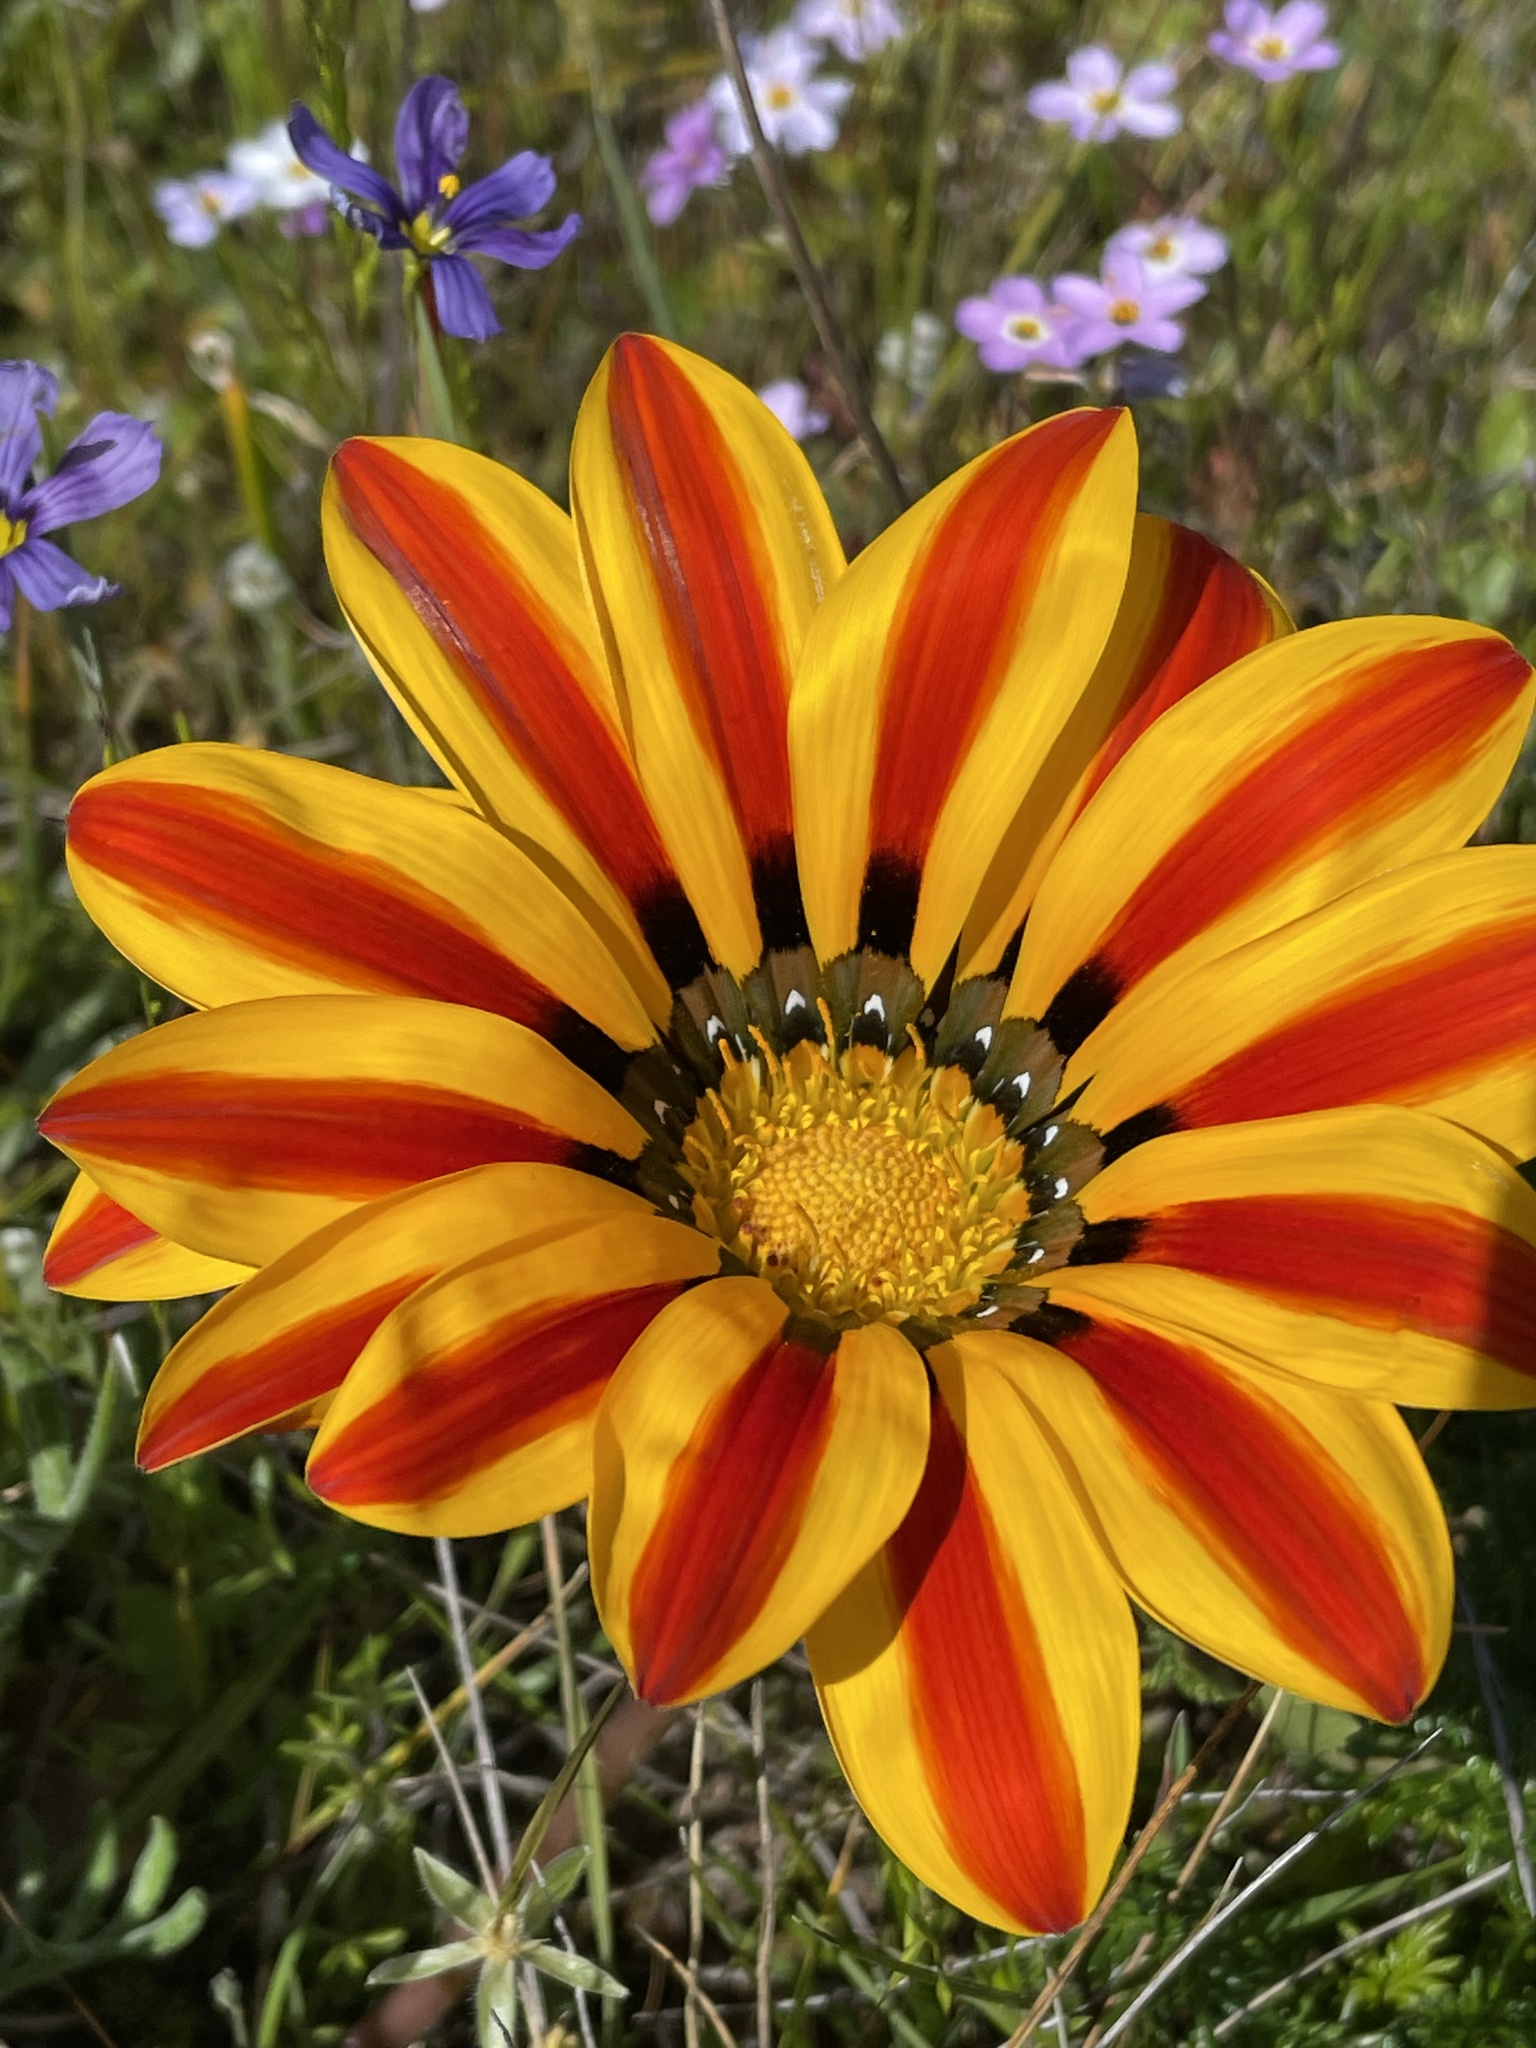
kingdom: Plantae
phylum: Tracheophyta
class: Magnoliopsida
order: Asterales
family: Asteraceae
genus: Gazania
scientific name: Gazania linearis
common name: Treasureflower
